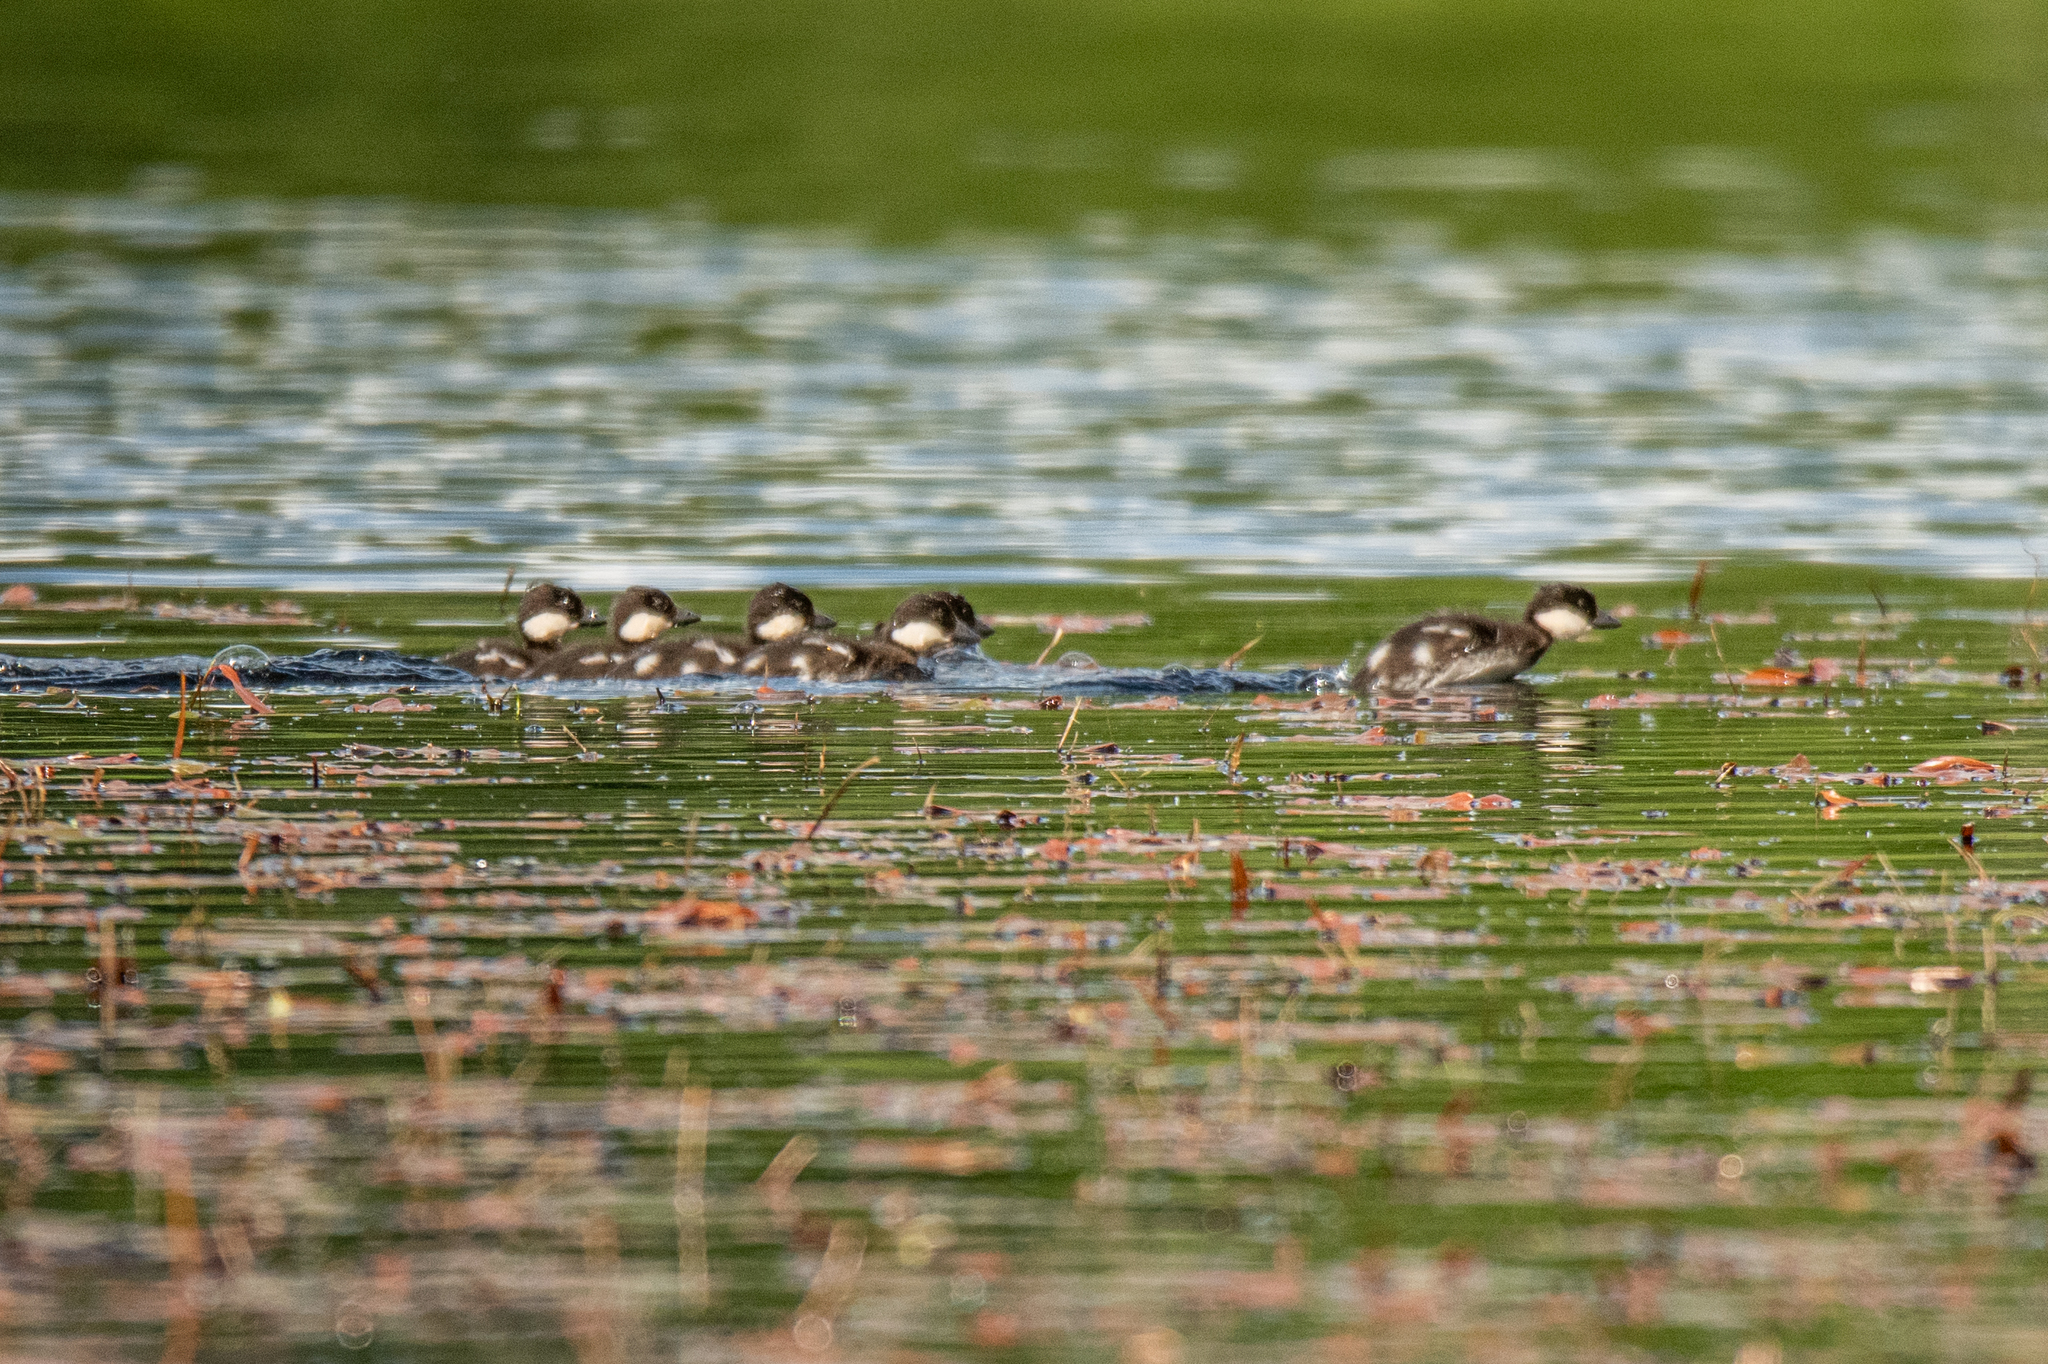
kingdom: Animalia
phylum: Chordata
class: Aves
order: Anseriformes
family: Anatidae
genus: Bucephala
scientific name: Bucephala clangula
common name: Common goldeneye
